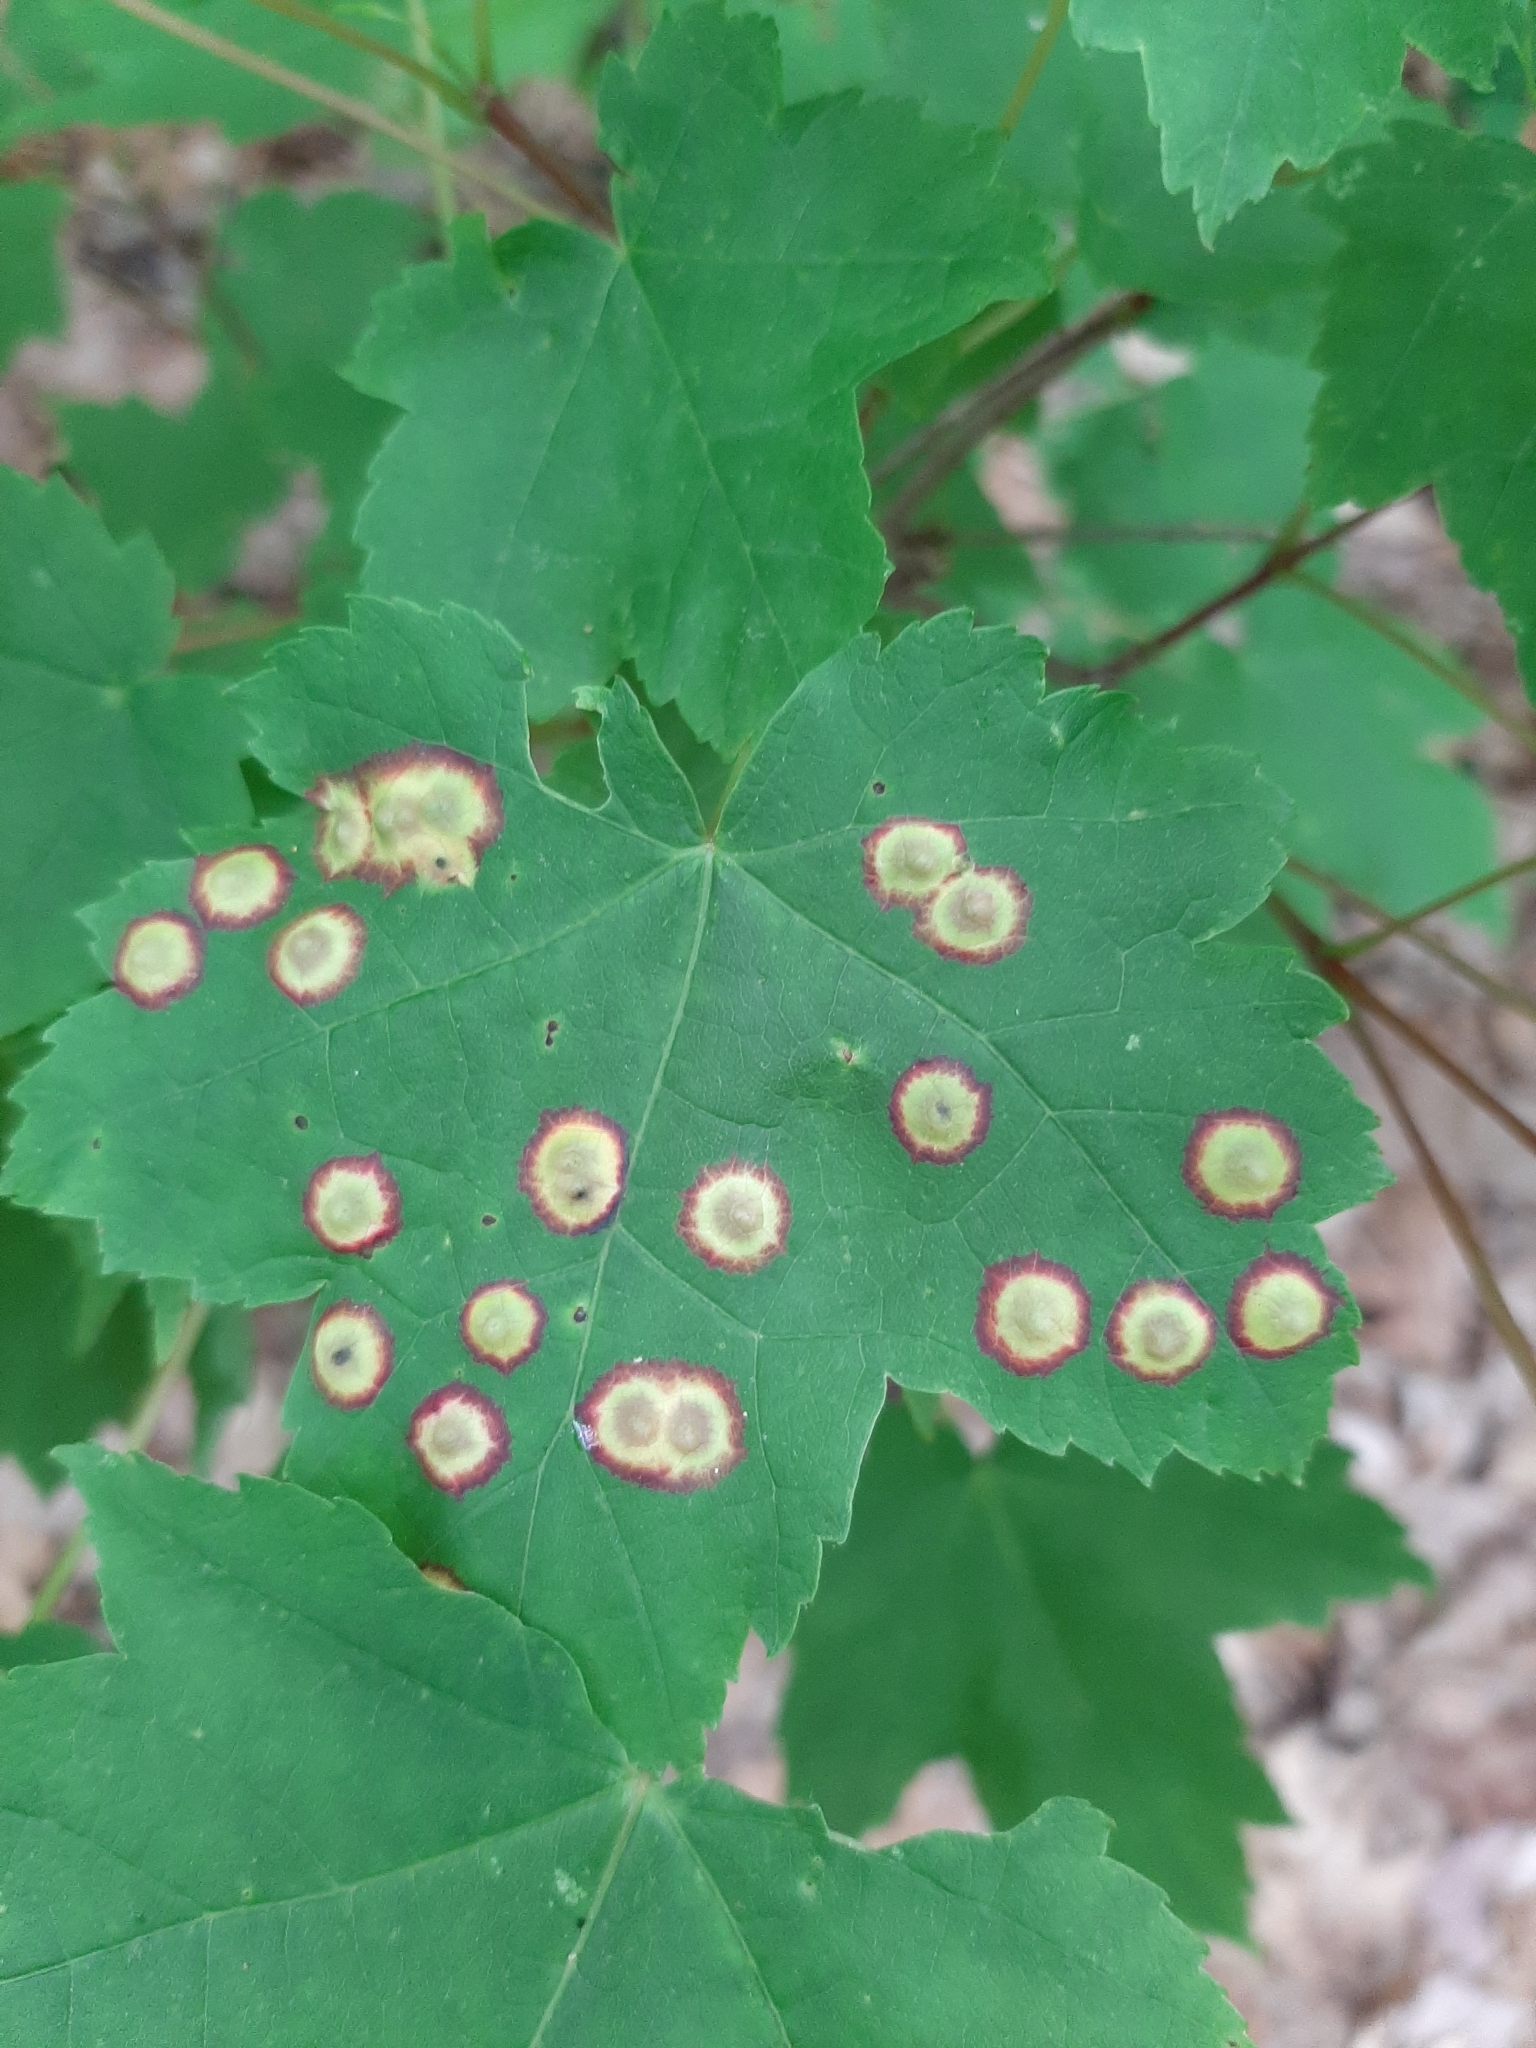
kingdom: Animalia
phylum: Arthropoda
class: Insecta
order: Diptera
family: Cecidomyiidae
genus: Acericecis
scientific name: Acericecis ocellaris
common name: Ocellate gall midge
